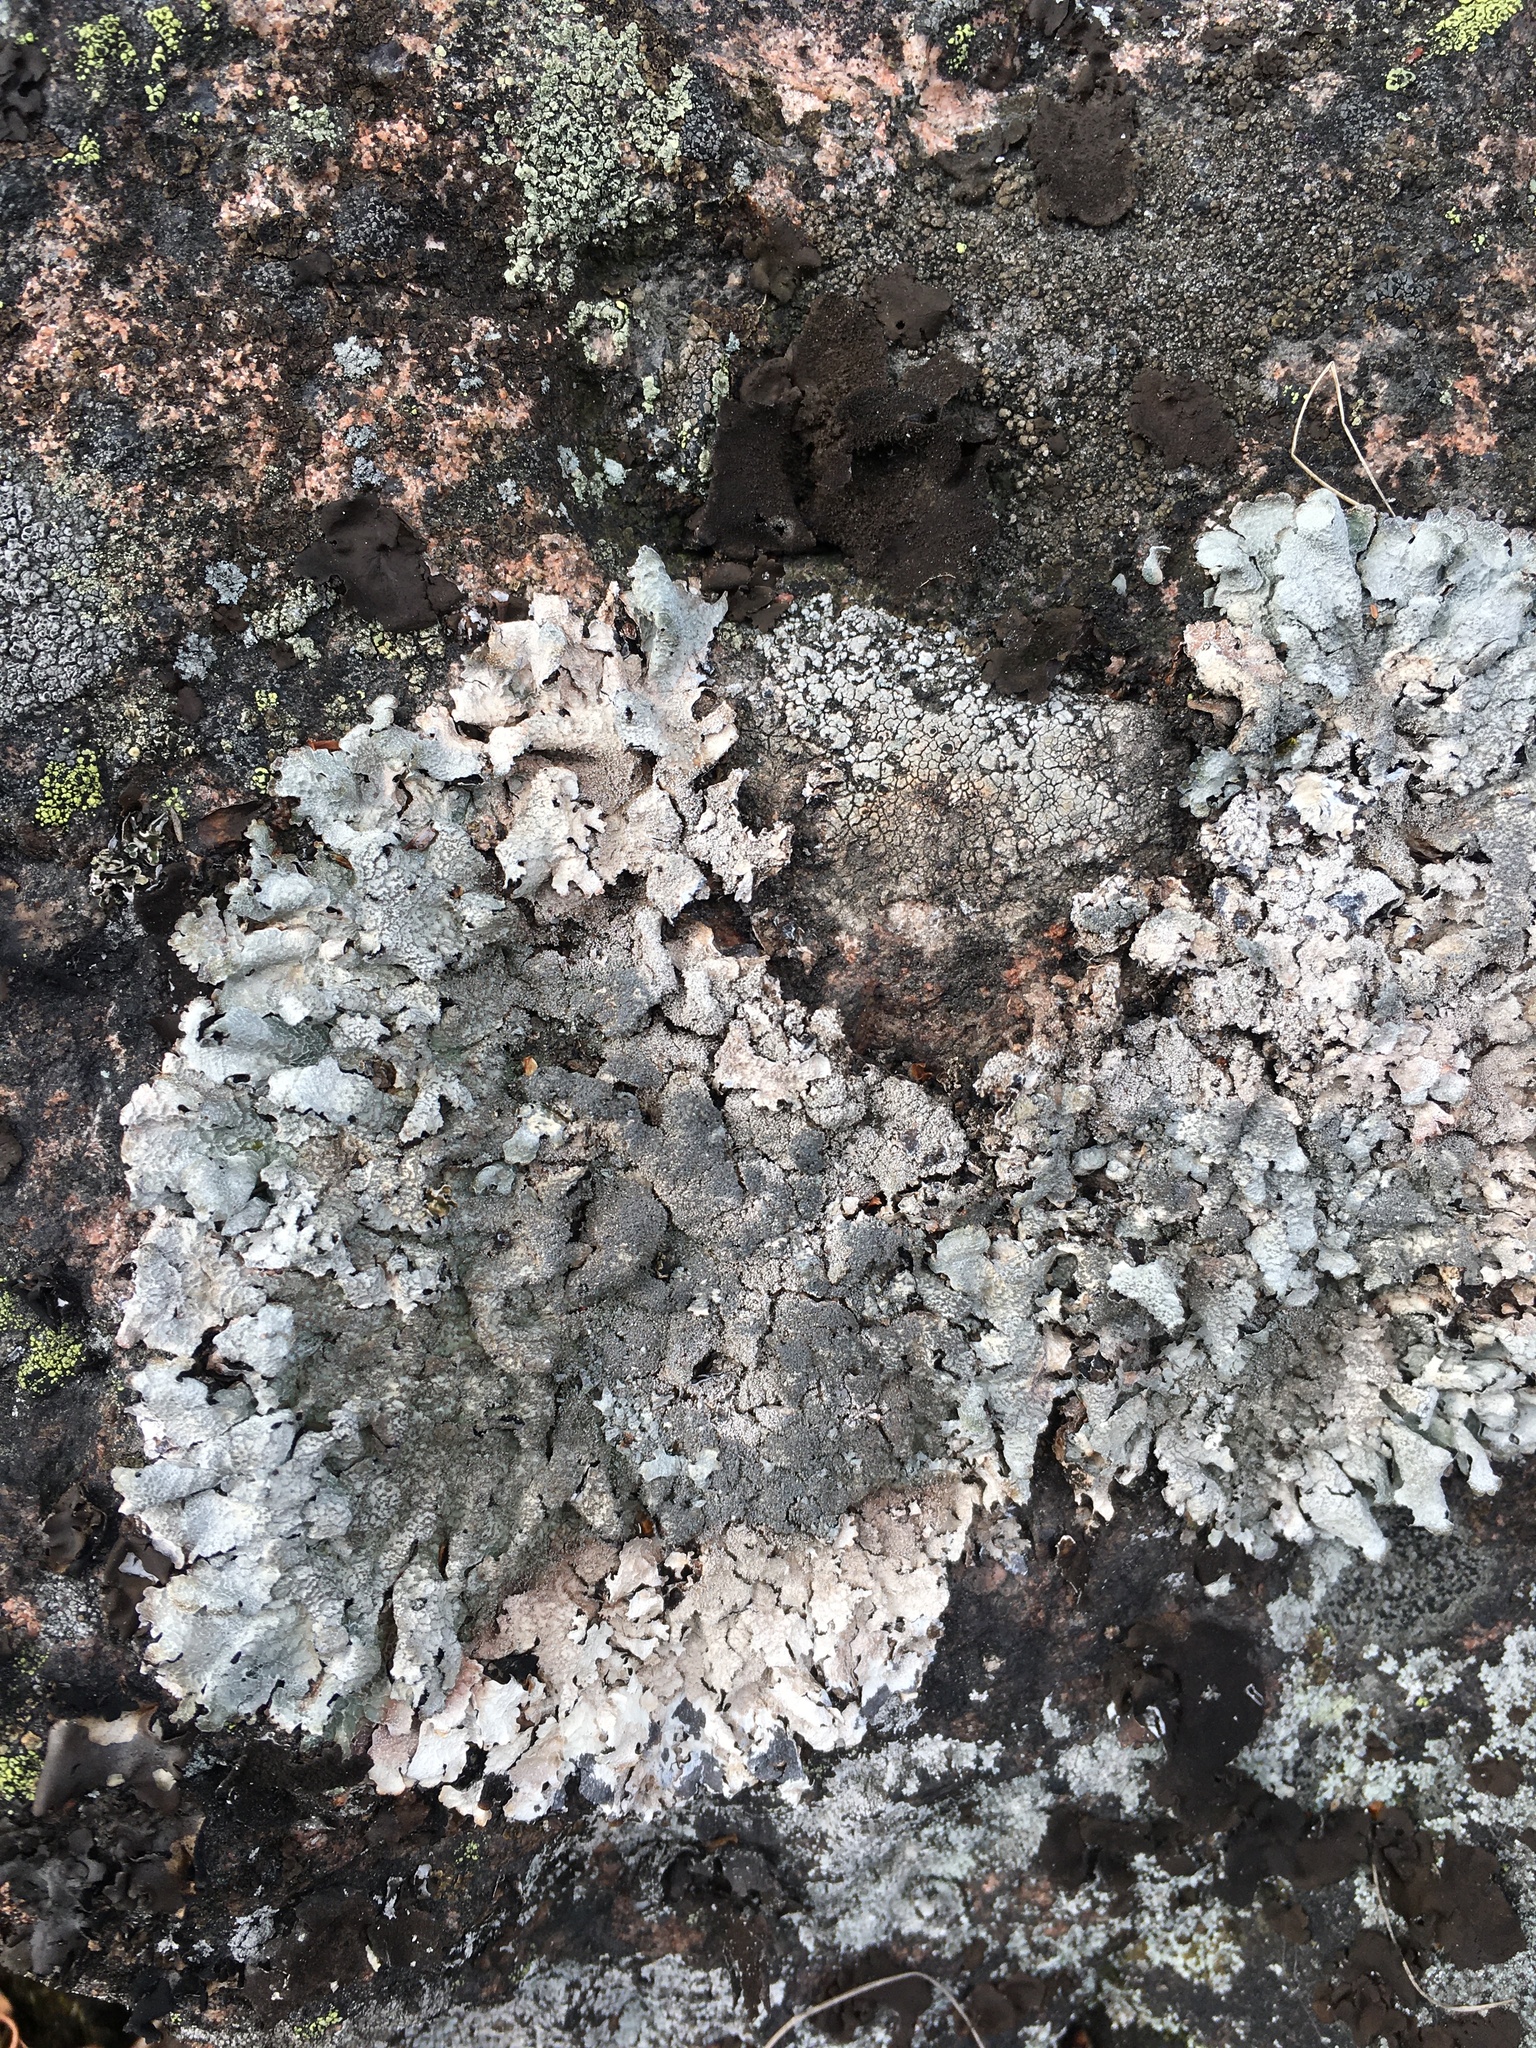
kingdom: Fungi
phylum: Ascomycota
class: Lecanoromycetes
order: Lecanorales
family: Parmeliaceae
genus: Parmelia
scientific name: Parmelia saxatilis
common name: Salted shield lichen
